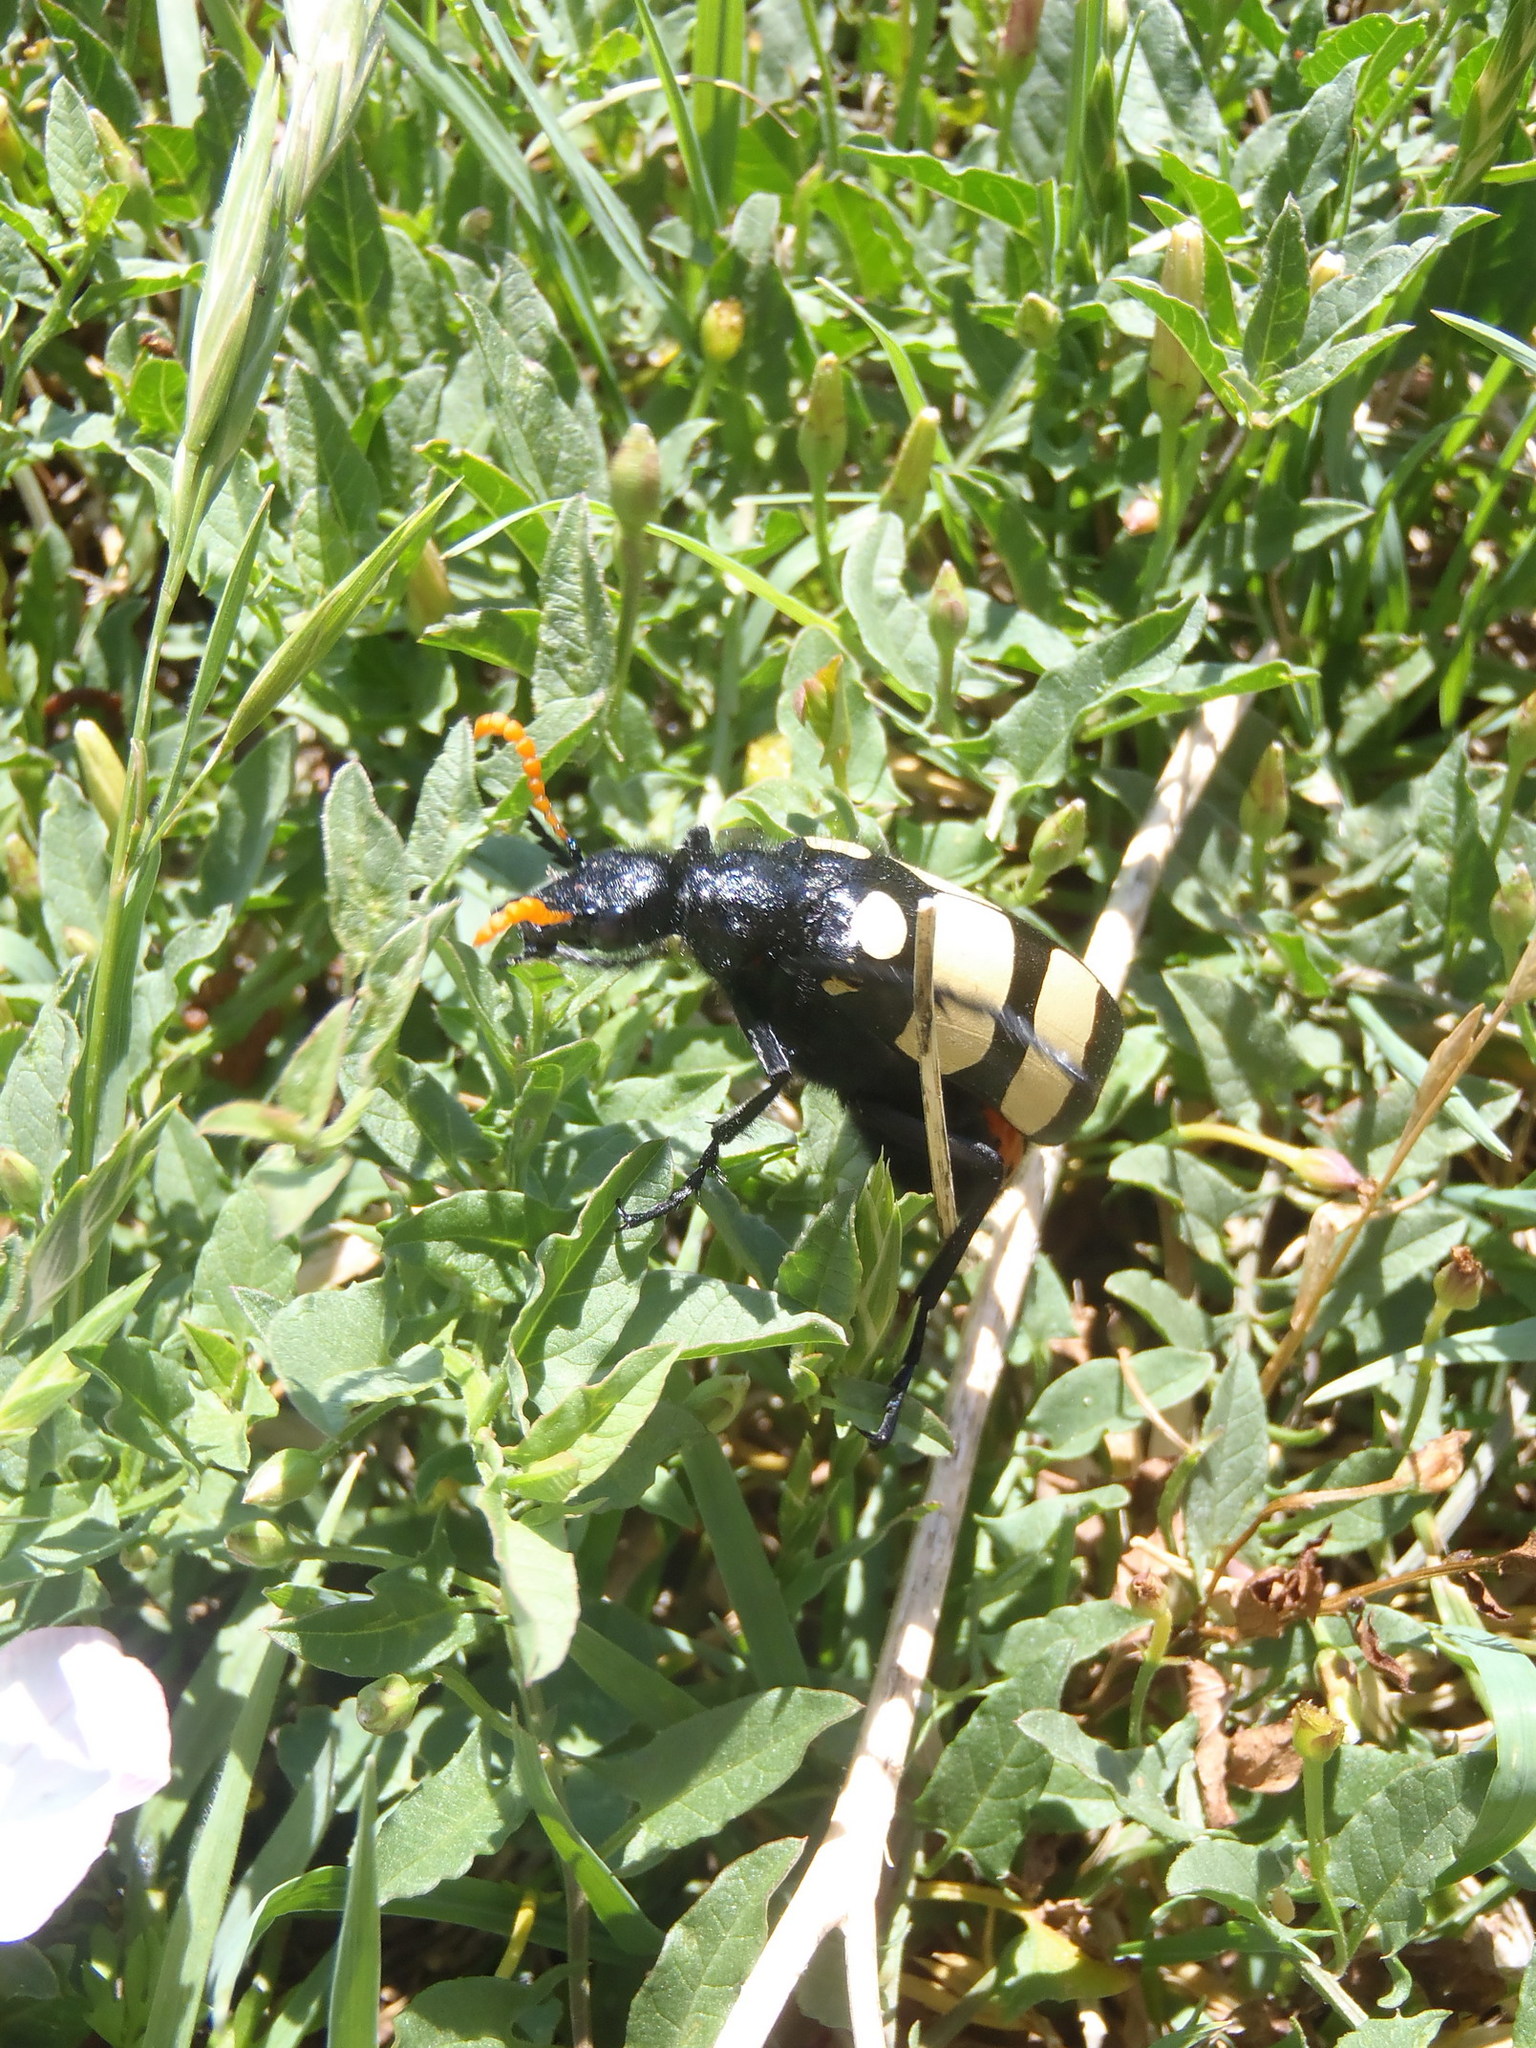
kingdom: Animalia
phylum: Arthropoda
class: Insecta
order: Coleoptera
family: Meloidae
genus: Hycleus
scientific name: Hycleus
